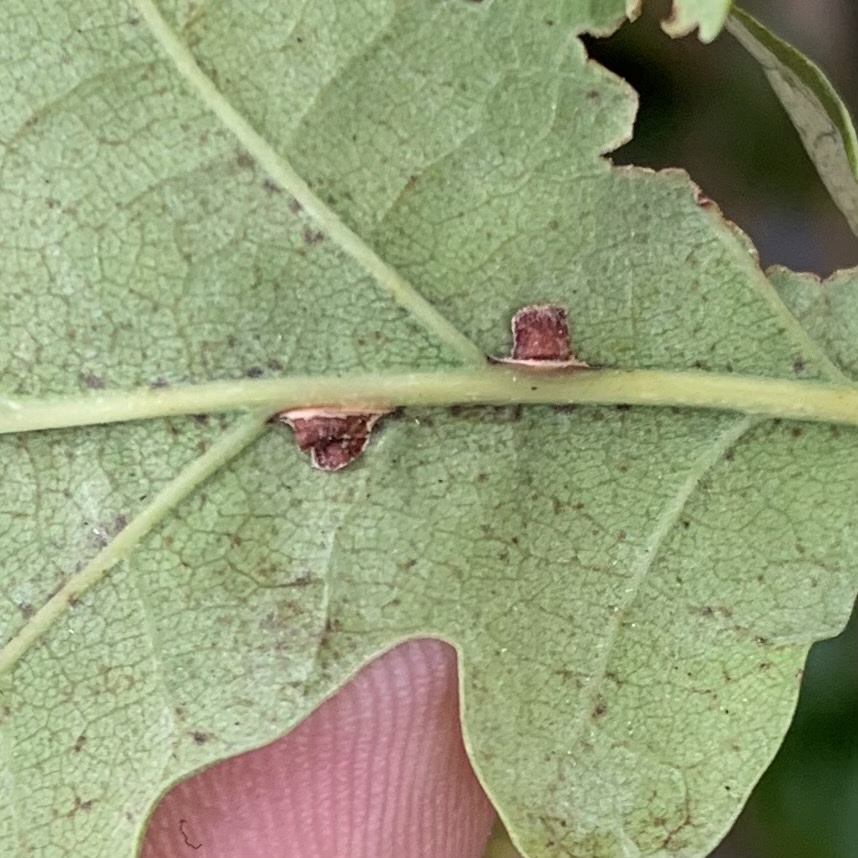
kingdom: Animalia
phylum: Arthropoda
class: Insecta
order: Hymenoptera
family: Cynipidae
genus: Neuroterus
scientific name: Neuroterus anthracinus
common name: Oyster gall
